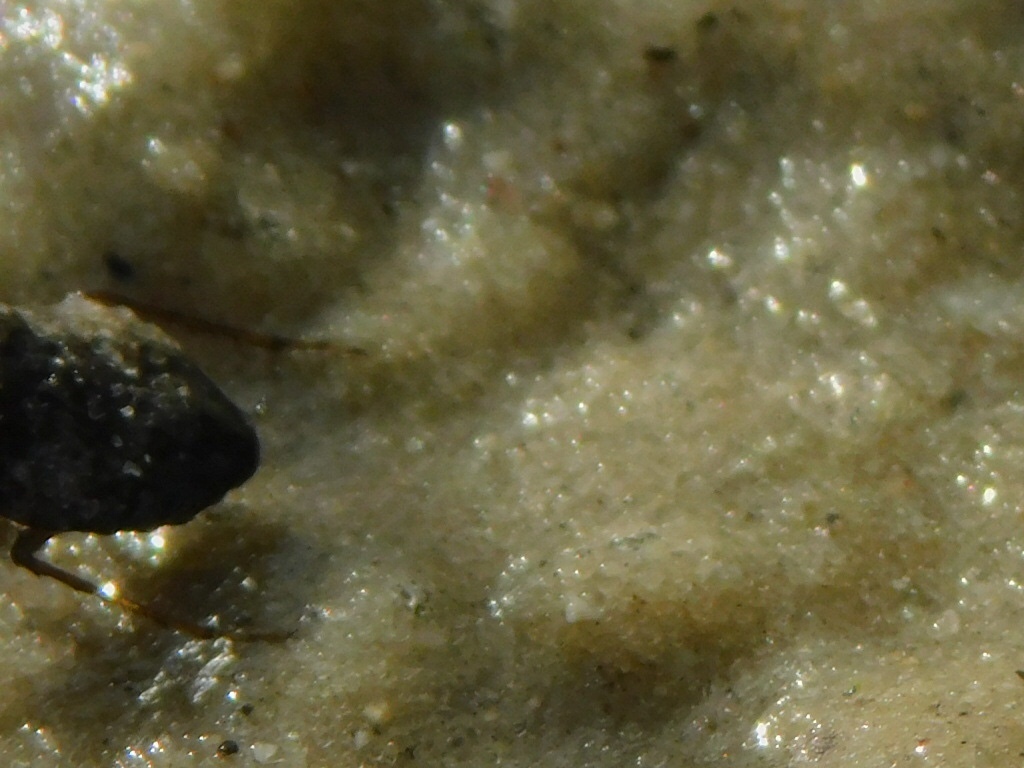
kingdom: Animalia
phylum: Arthropoda
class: Insecta
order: Hemiptera
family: Gelastocoridae
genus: Gelastocoris
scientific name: Gelastocoris oculatus
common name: Toad bug
